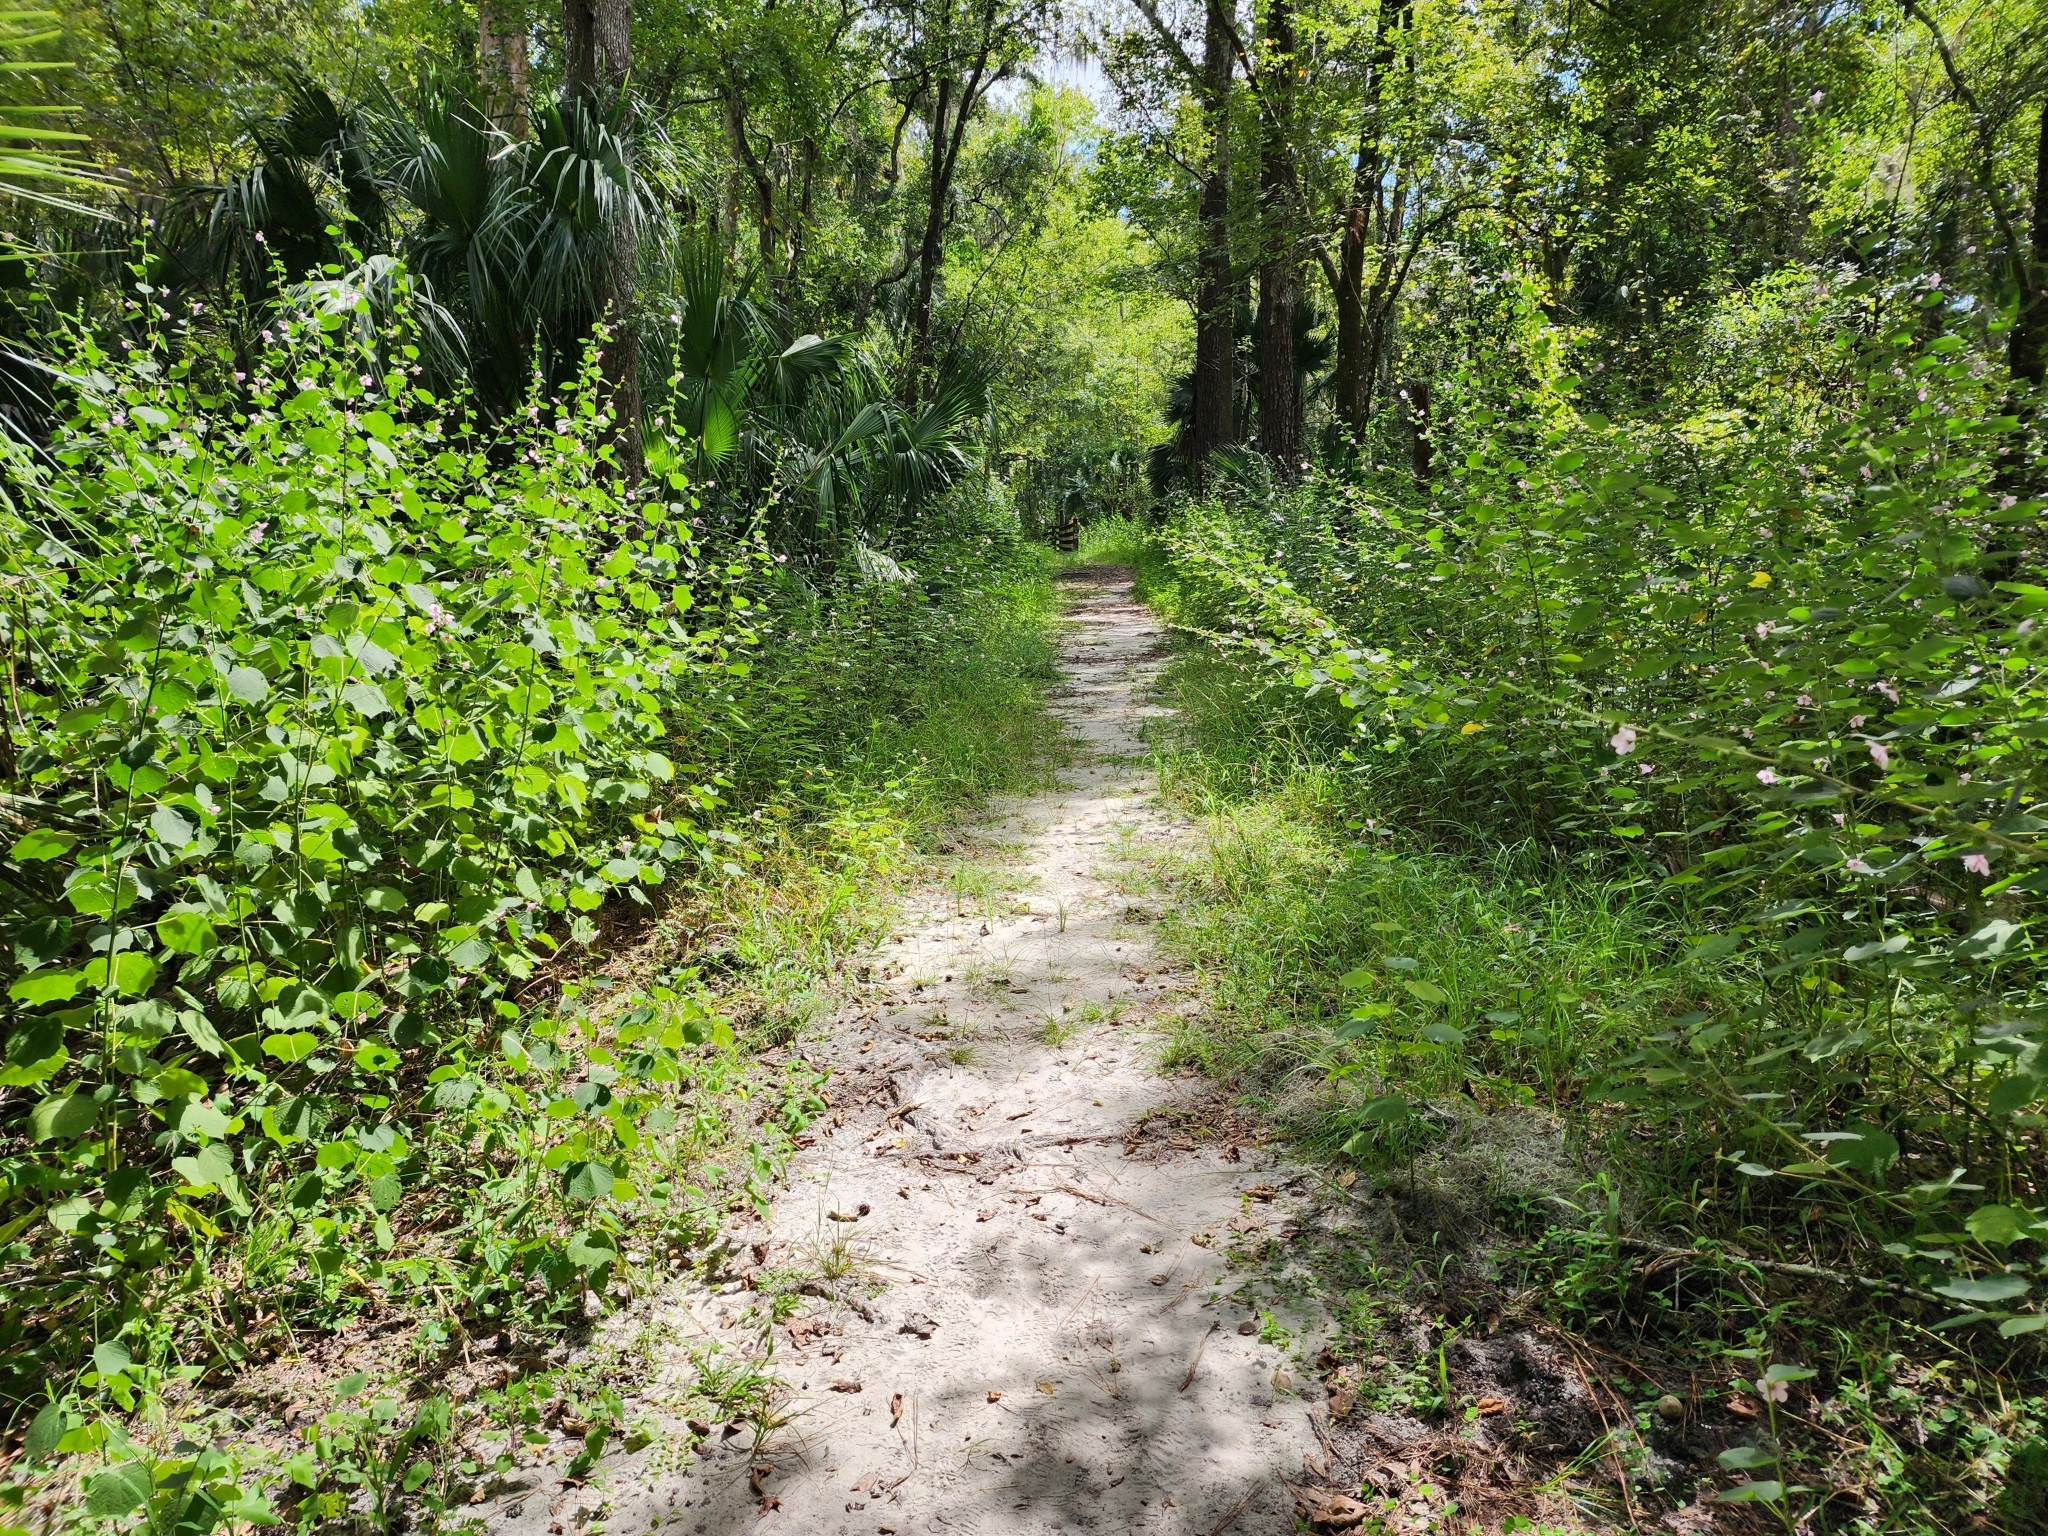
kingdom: Plantae
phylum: Tracheophyta
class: Magnoliopsida
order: Malvales
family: Malvaceae
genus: Urena
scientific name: Urena lobata
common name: Caesarweed
